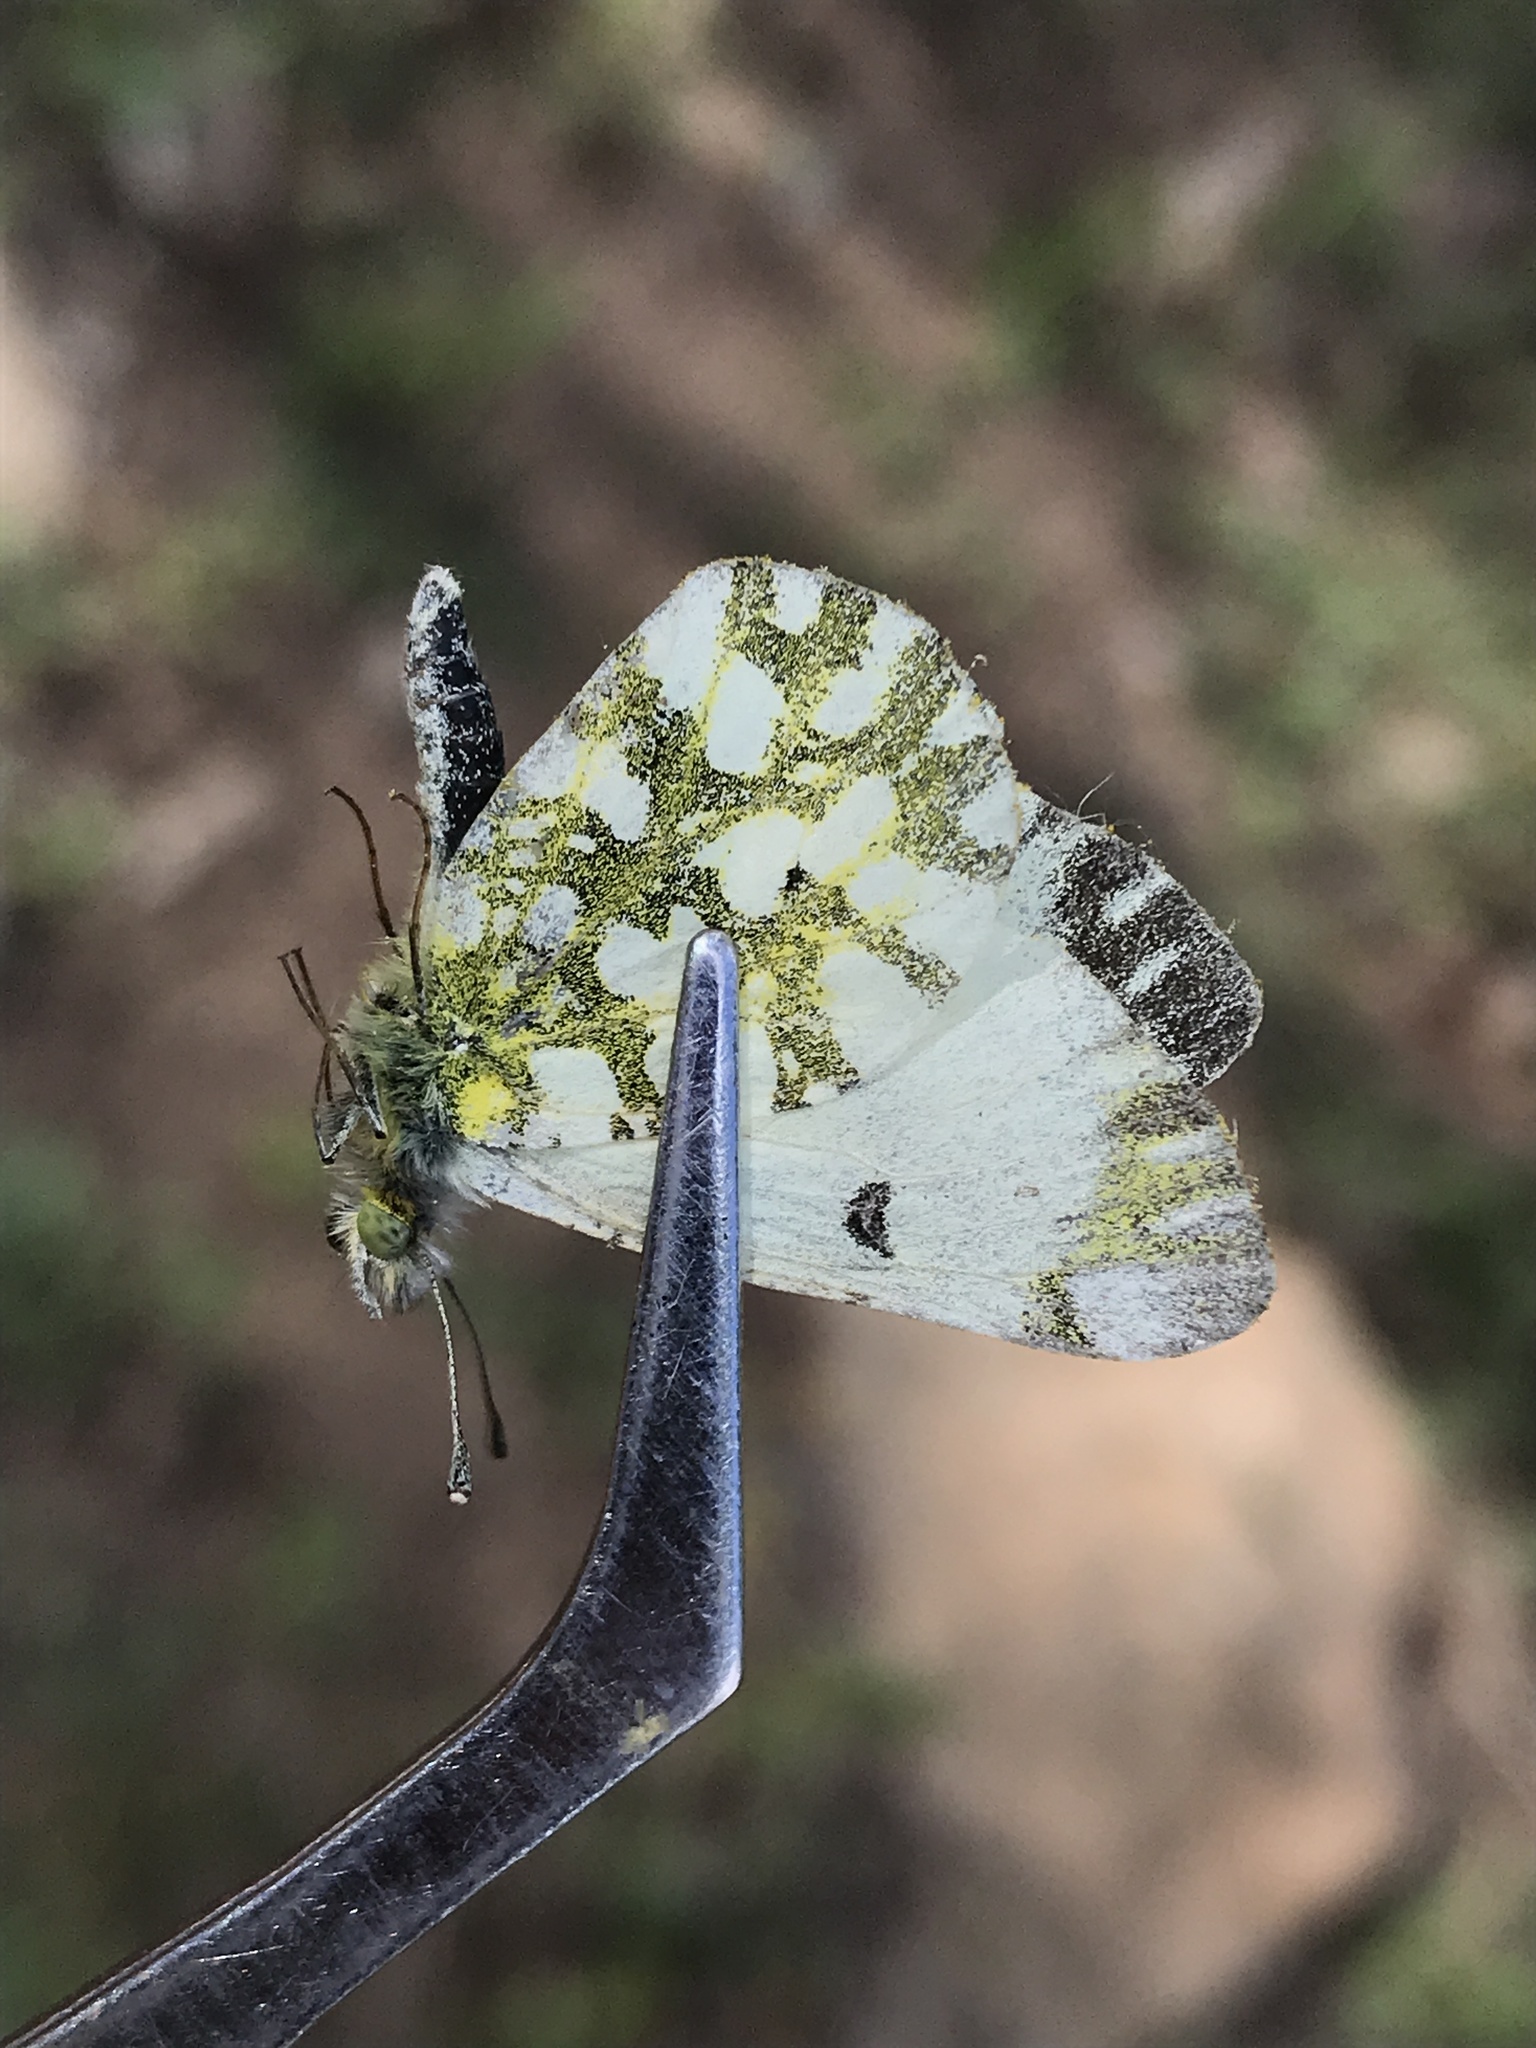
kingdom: Animalia
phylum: Arthropoda
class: Insecta
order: Lepidoptera
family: Pieridae
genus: Euchloe
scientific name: Euchloe ausonides
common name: Creamy marblewing
